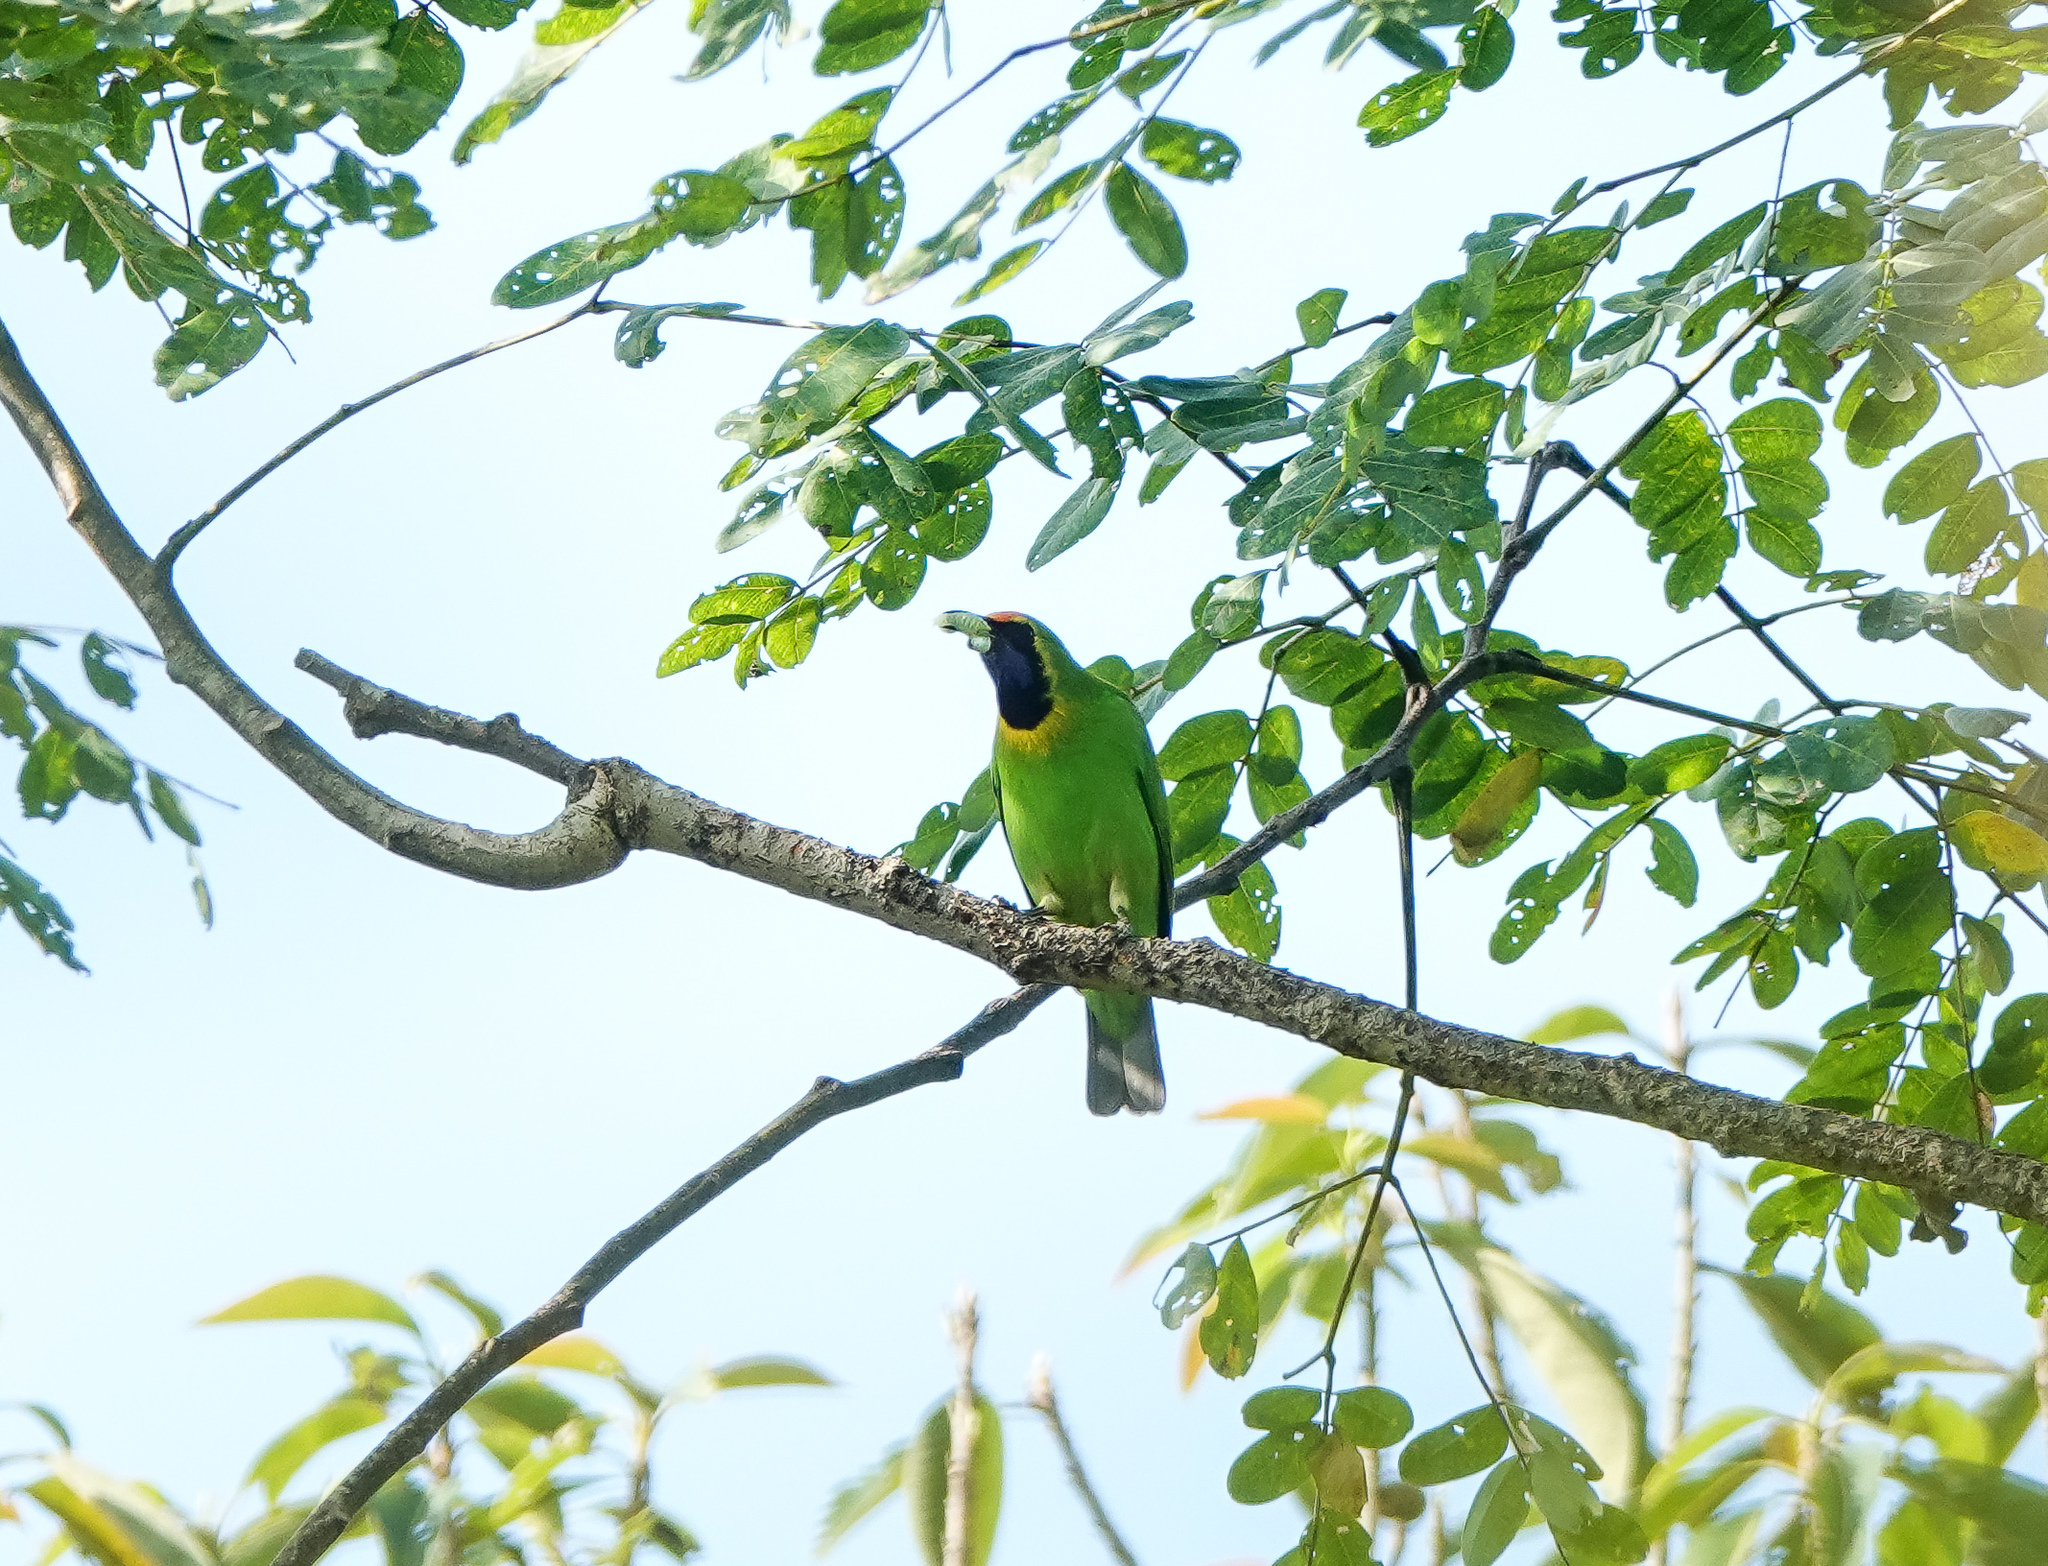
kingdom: Animalia
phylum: Chordata
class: Aves
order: Passeriformes
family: Chloropseidae
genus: Chloropsis
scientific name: Chloropsis aurifrons
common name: Golden-fronted leafbird
